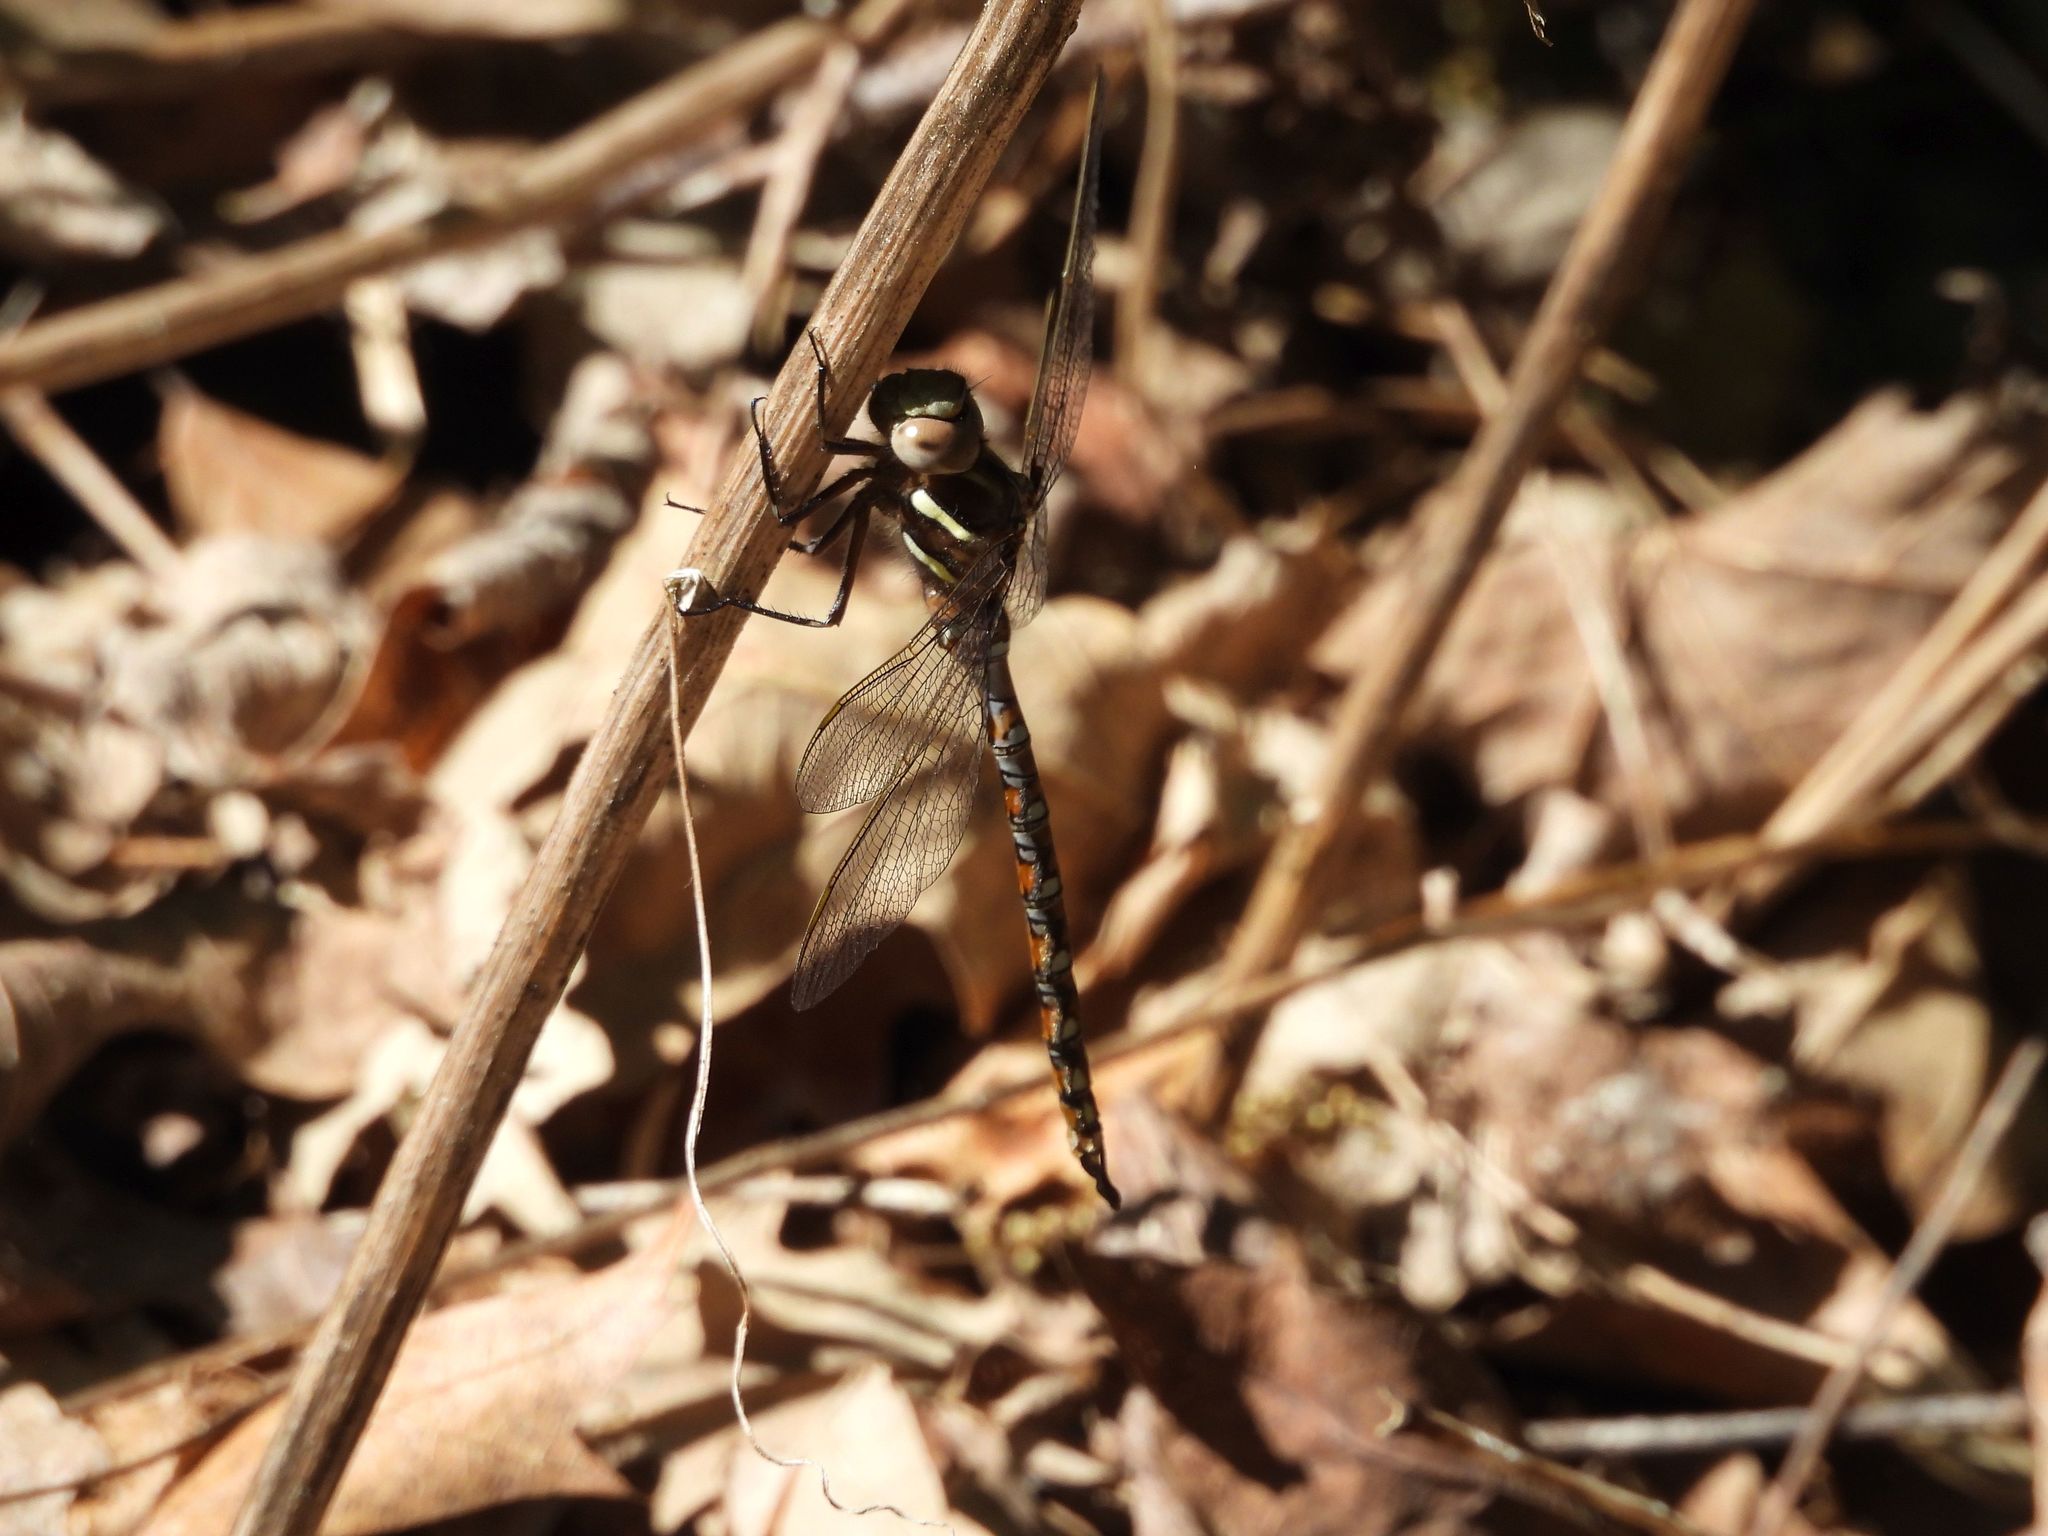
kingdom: Animalia
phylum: Arthropoda
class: Insecta
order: Odonata
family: Aeshnidae
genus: Basiaeschna
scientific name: Basiaeschna janata
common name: Springtime darner
